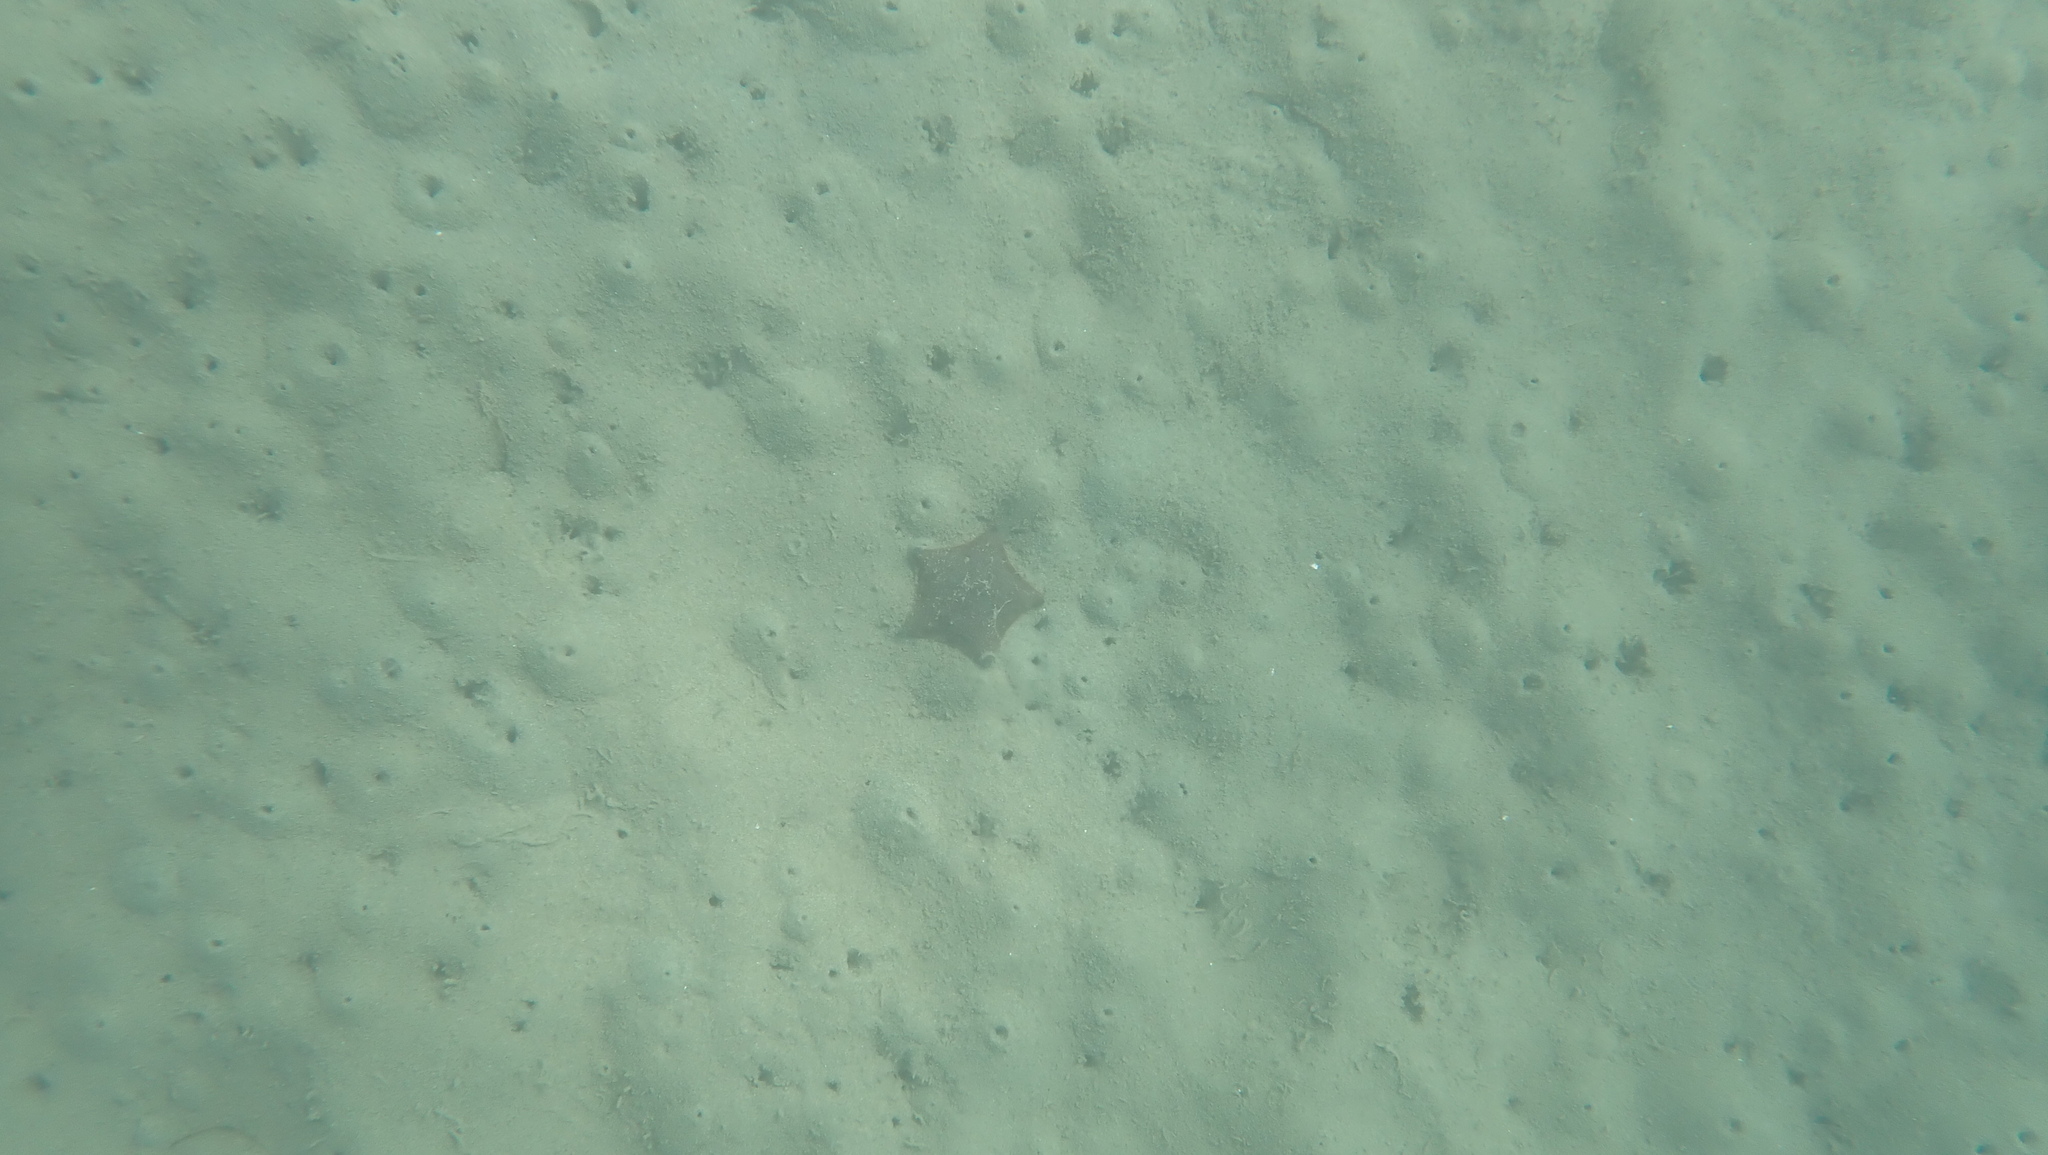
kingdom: Animalia
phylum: Echinodermata
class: Asteroidea
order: Valvatida
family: Asterinidae
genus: Patiriella
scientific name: Patiriella regularis
